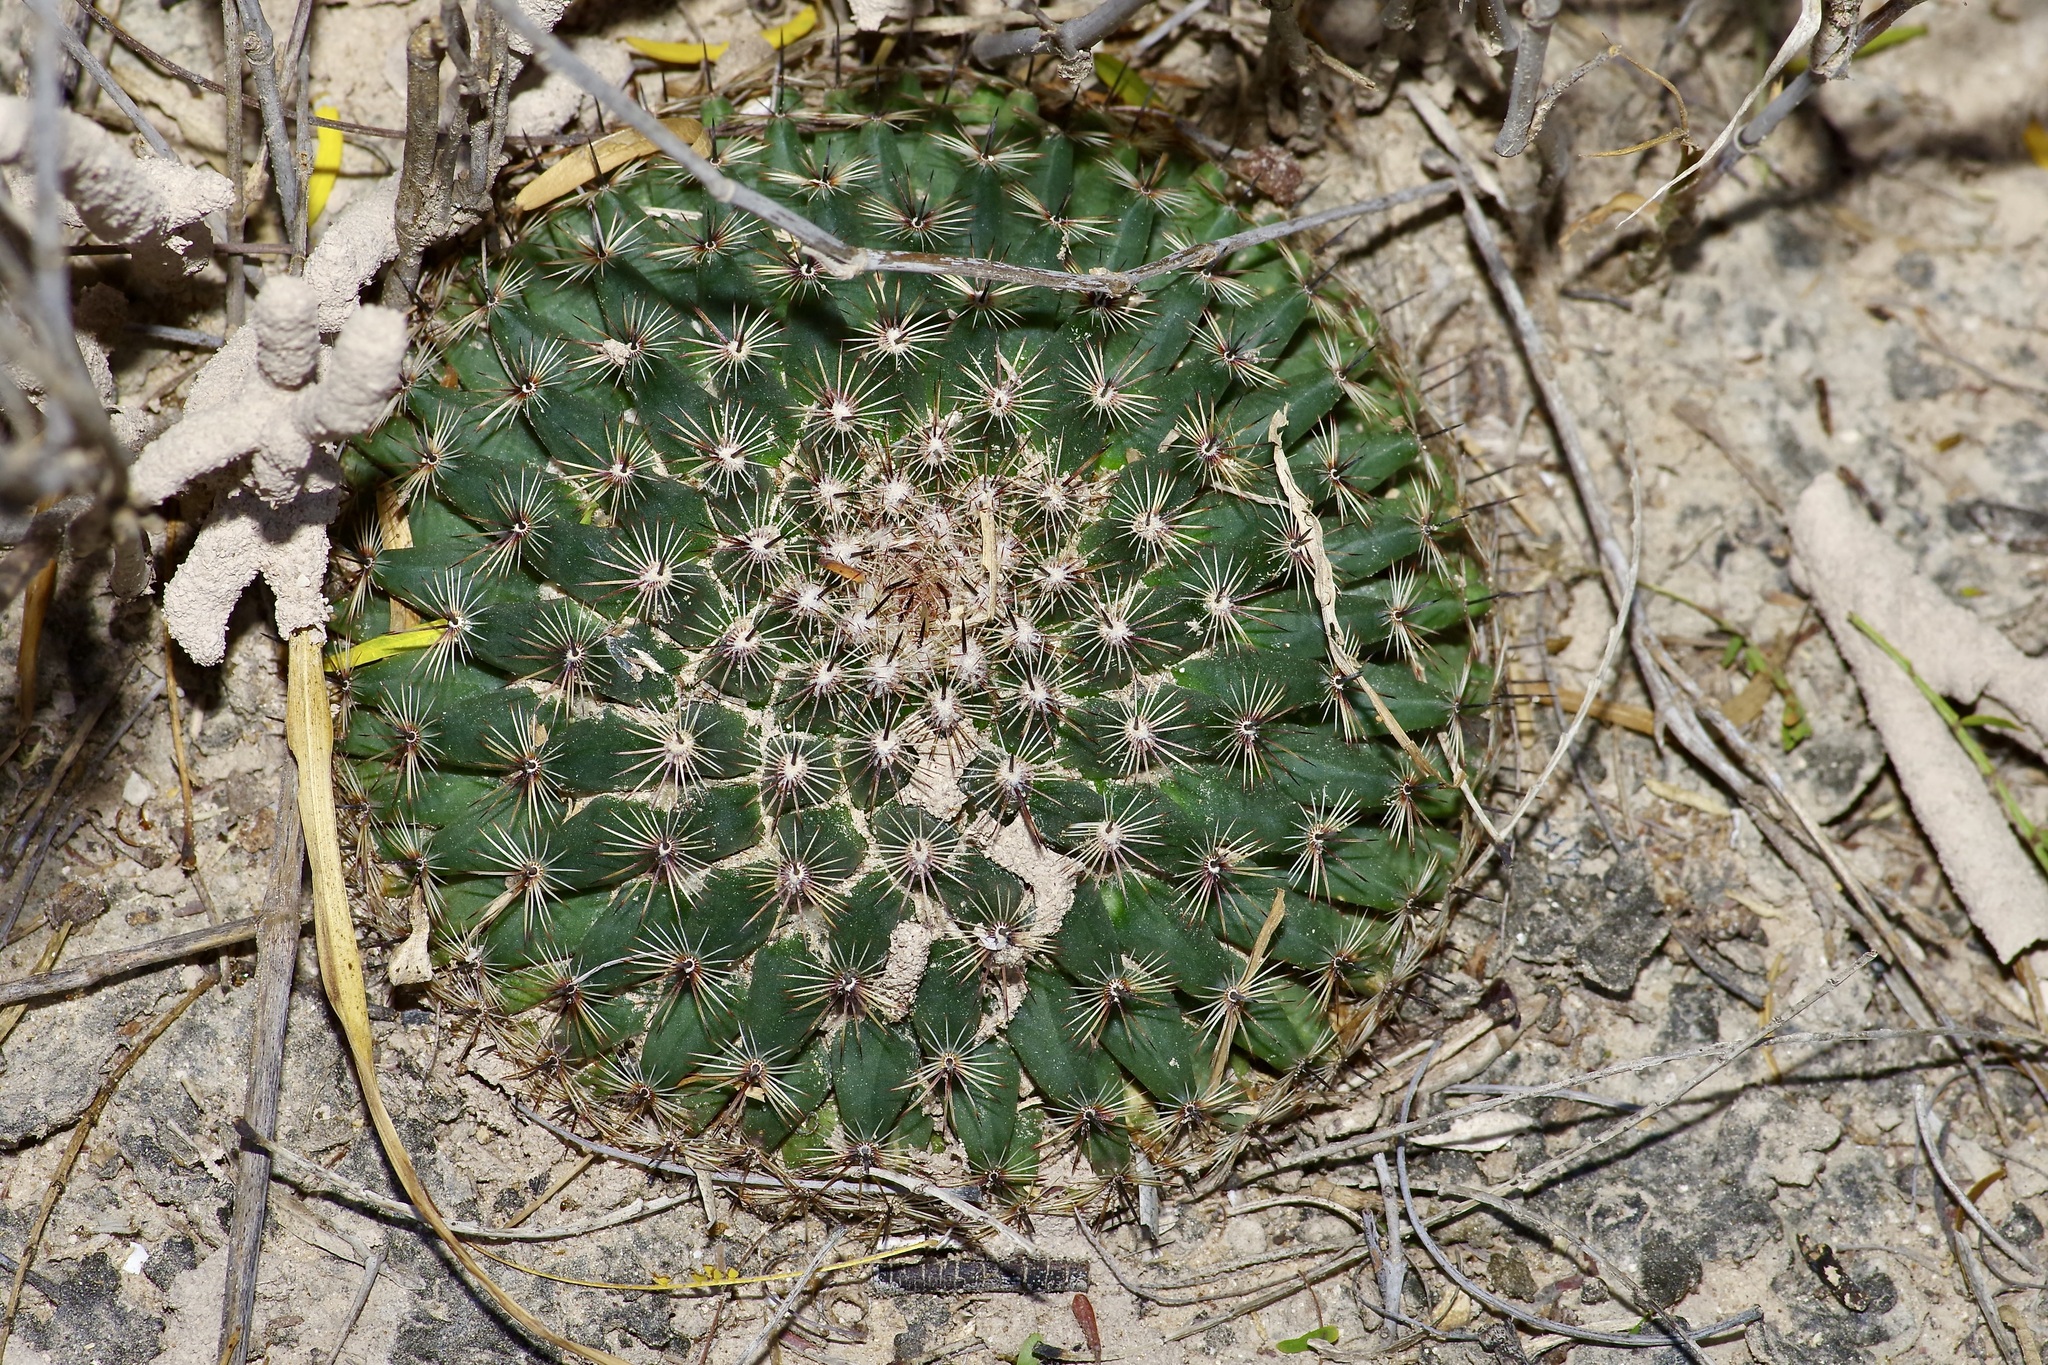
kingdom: Plantae
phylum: Tracheophyta
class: Magnoliopsida
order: Caryophyllales
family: Cactaceae
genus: Mammillaria
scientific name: Mammillaria heyderi
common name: Little nipple cactus
